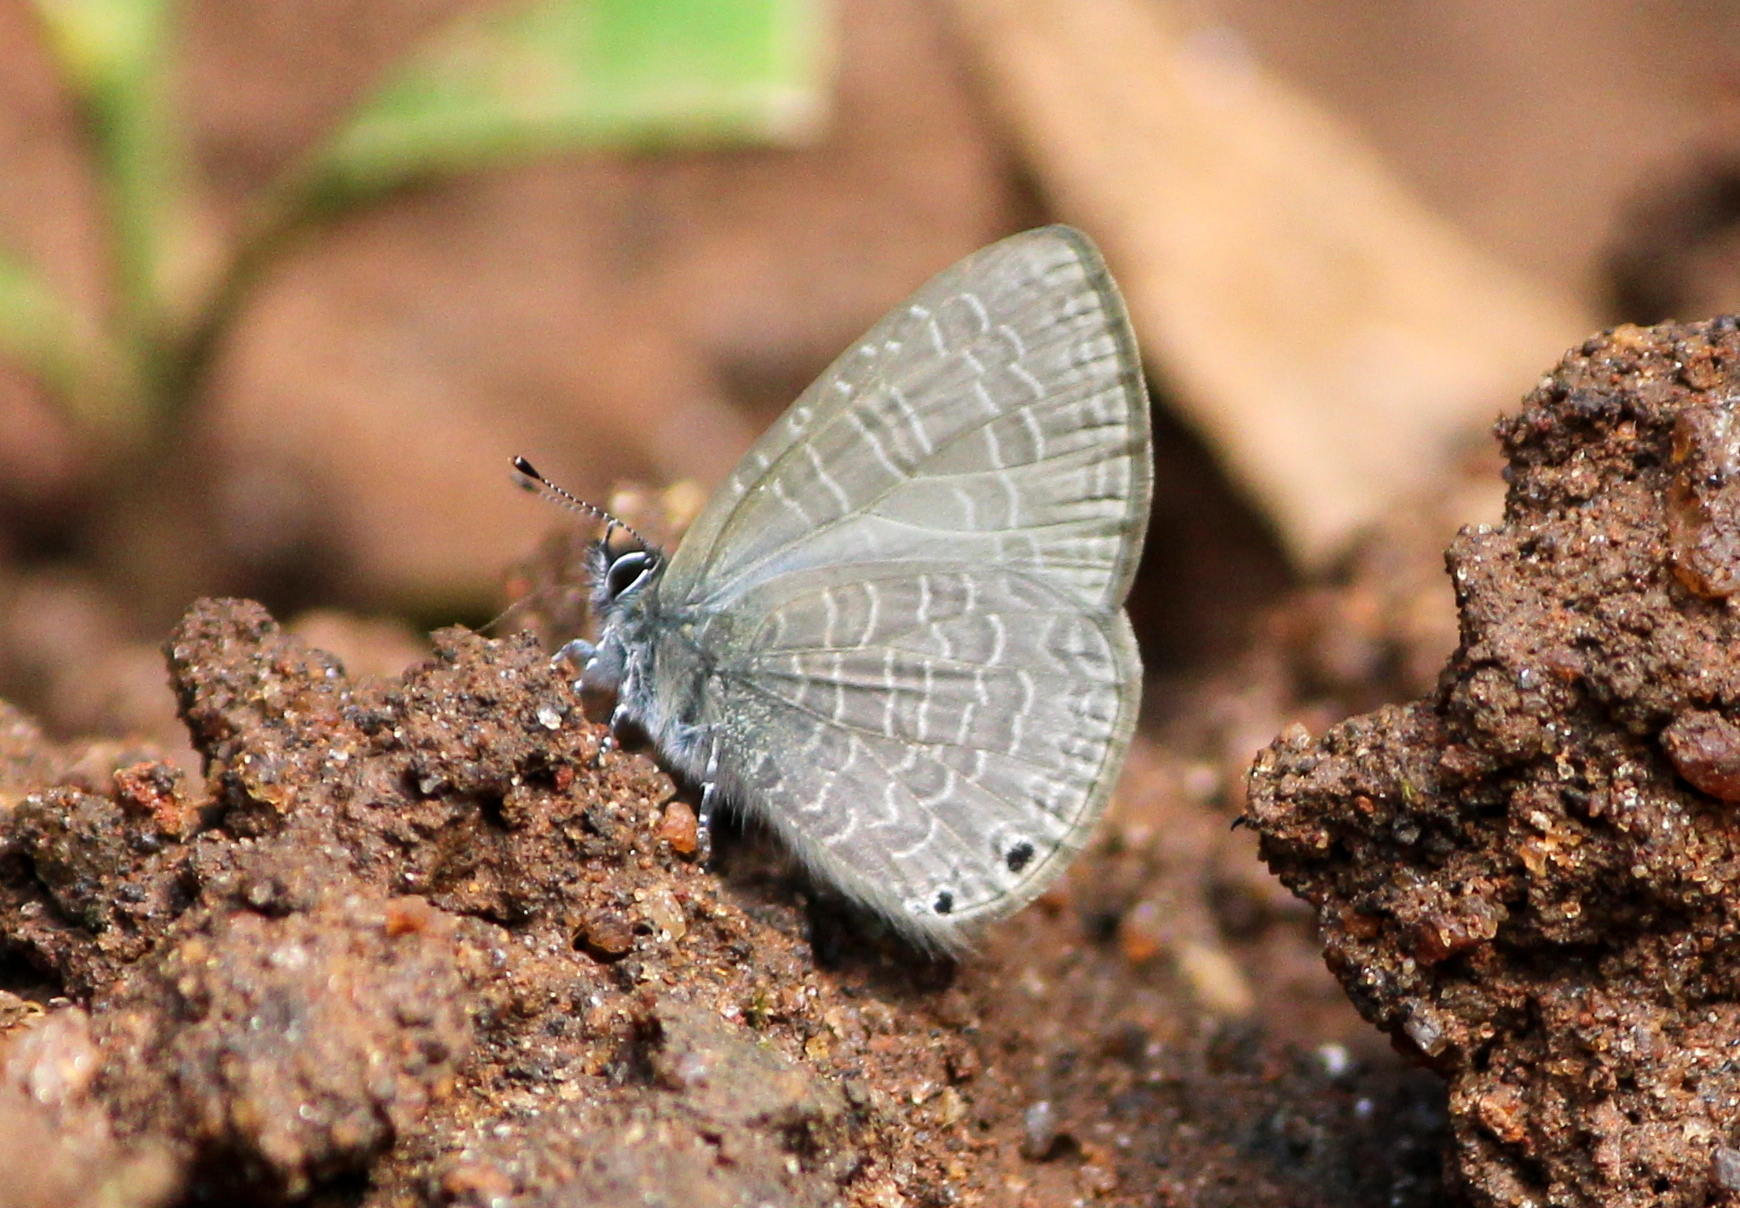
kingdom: Animalia
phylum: Arthropoda
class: Insecta
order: Lepidoptera
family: Lycaenidae
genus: Petrelaea
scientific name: Petrelaea dana
